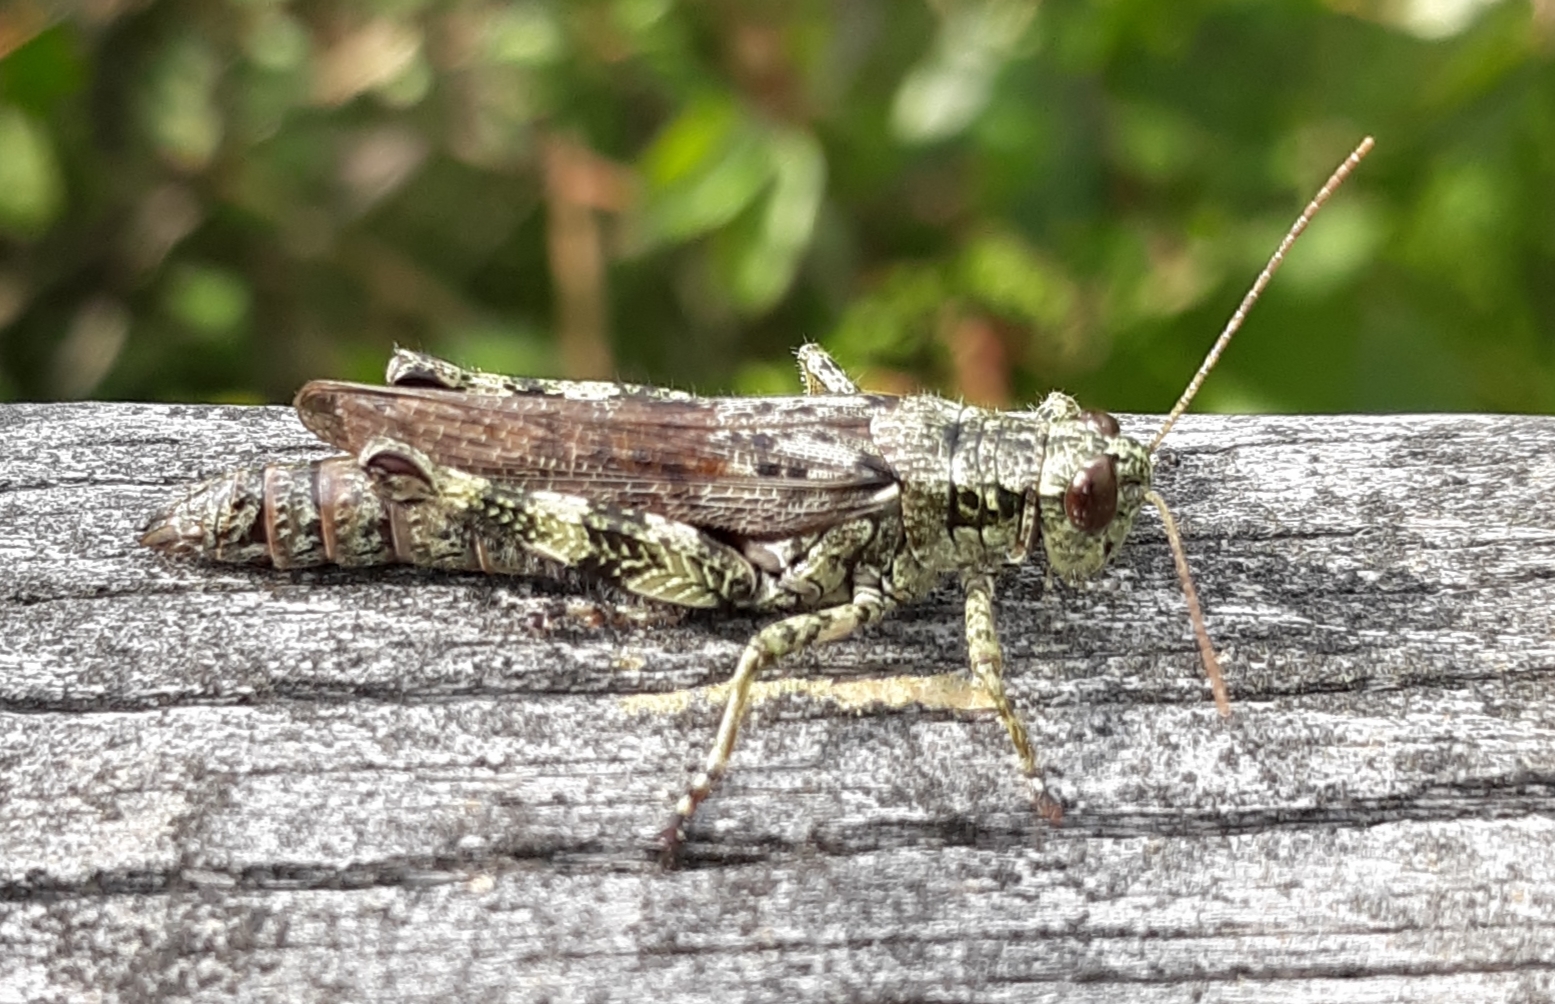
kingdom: Animalia
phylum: Arthropoda
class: Insecta
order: Orthoptera
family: Acrididae
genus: Melanoplus
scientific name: Melanoplus punctulatus
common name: Pine-tree spur-throat grasshopper
